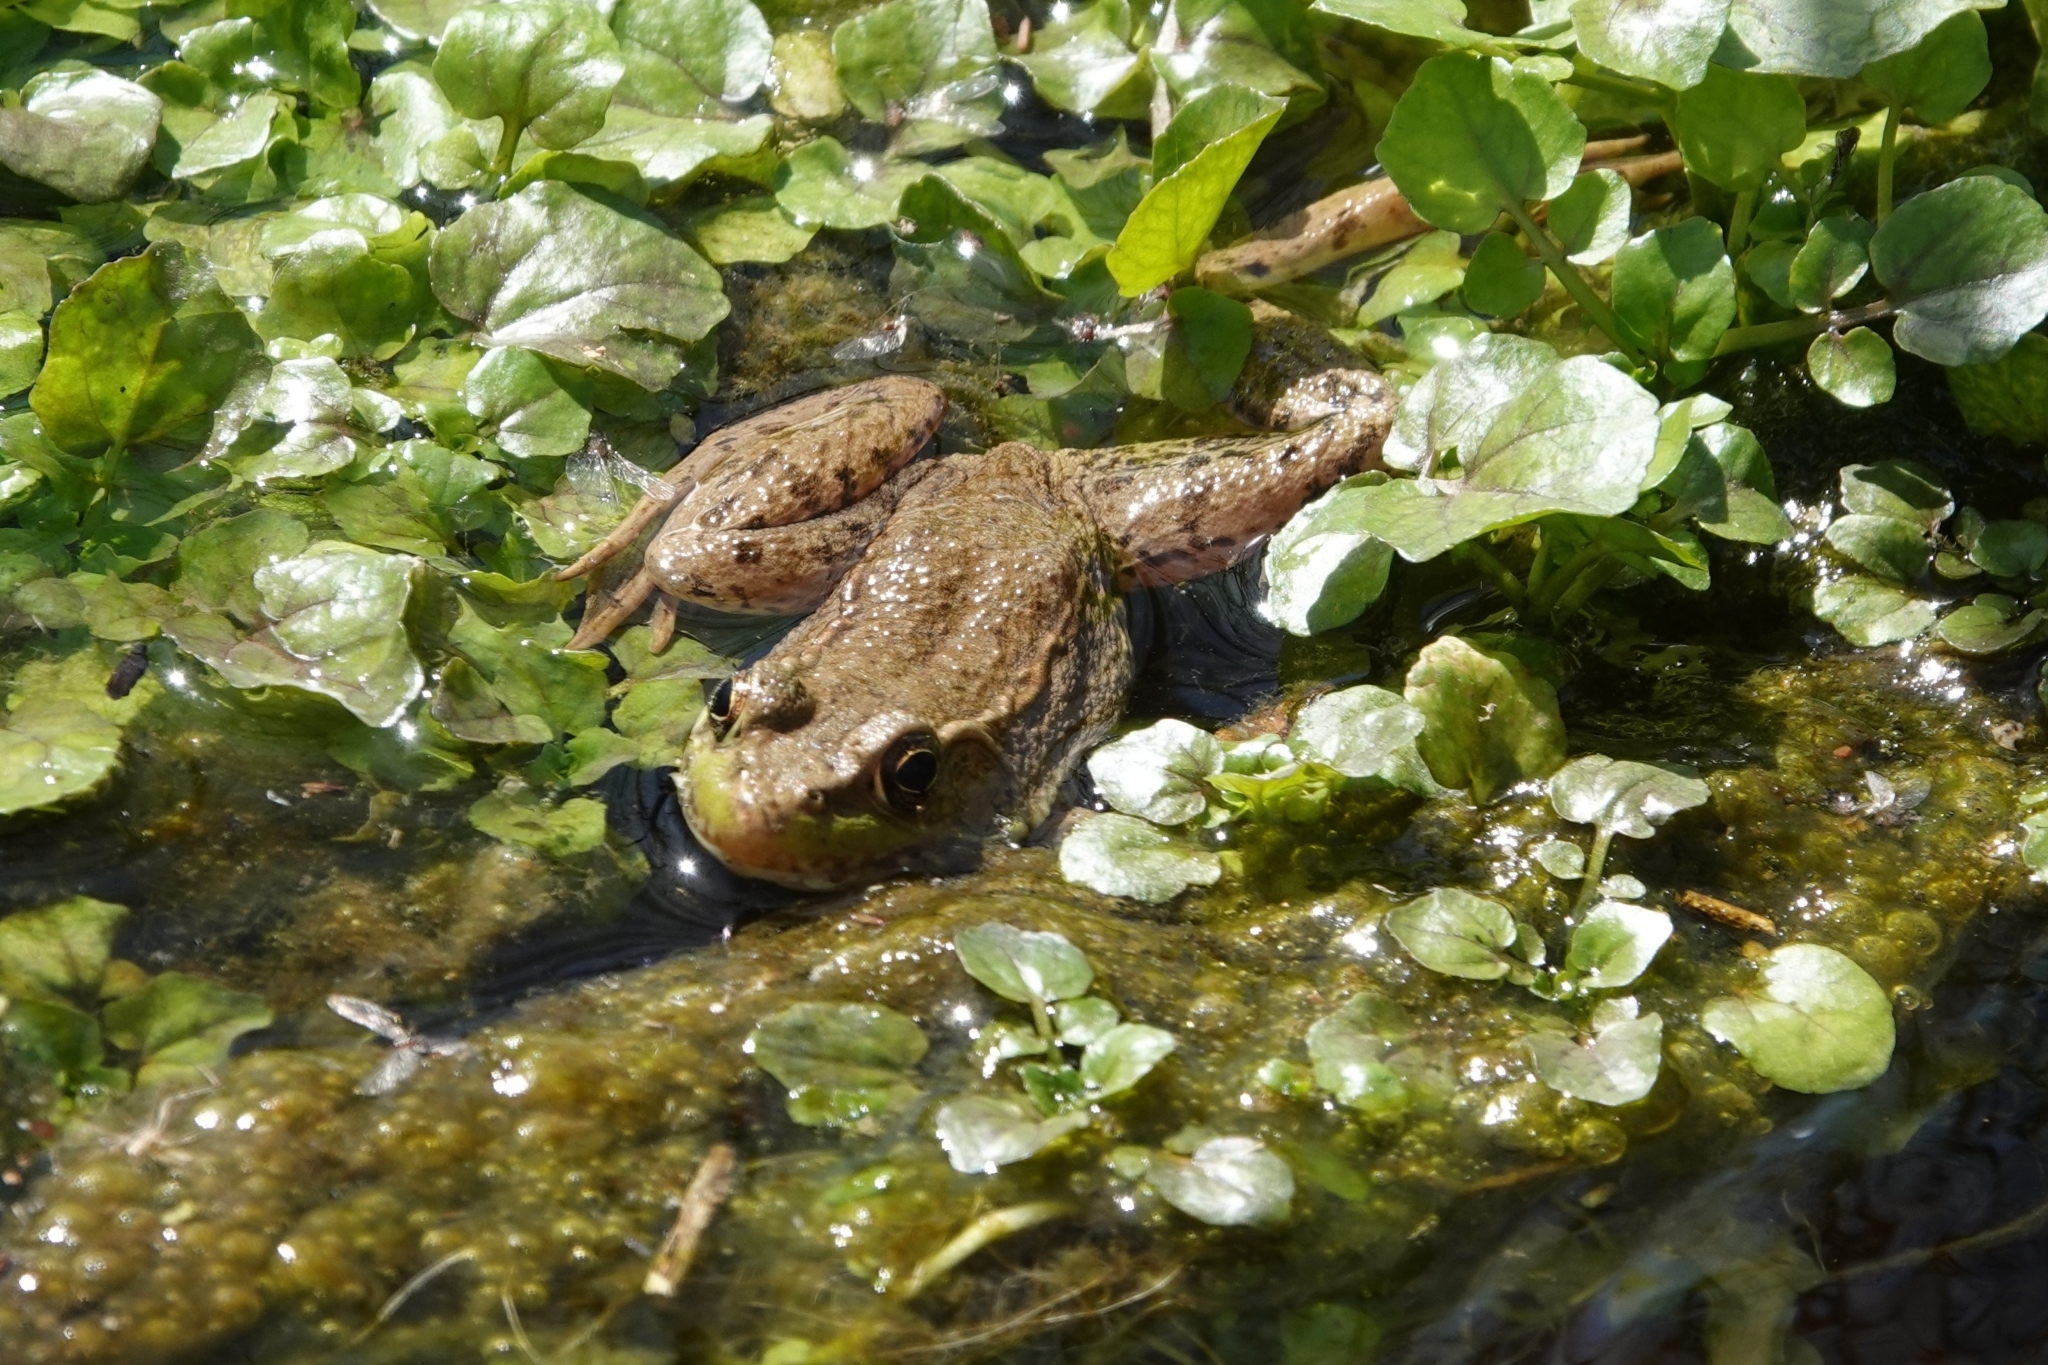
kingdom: Animalia
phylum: Chordata
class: Amphibia
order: Anura
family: Ranidae
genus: Lithobates
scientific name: Lithobates clamitans
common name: Green frog
